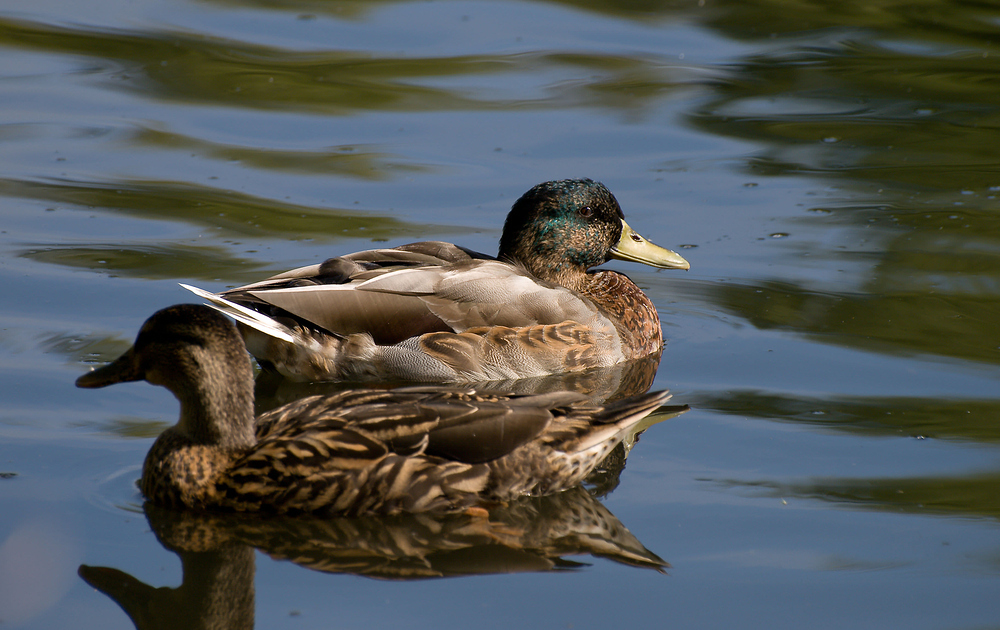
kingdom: Animalia
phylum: Chordata
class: Aves
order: Anseriformes
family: Anatidae
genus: Anas
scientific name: Anas platyrhynchos
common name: Mallard
